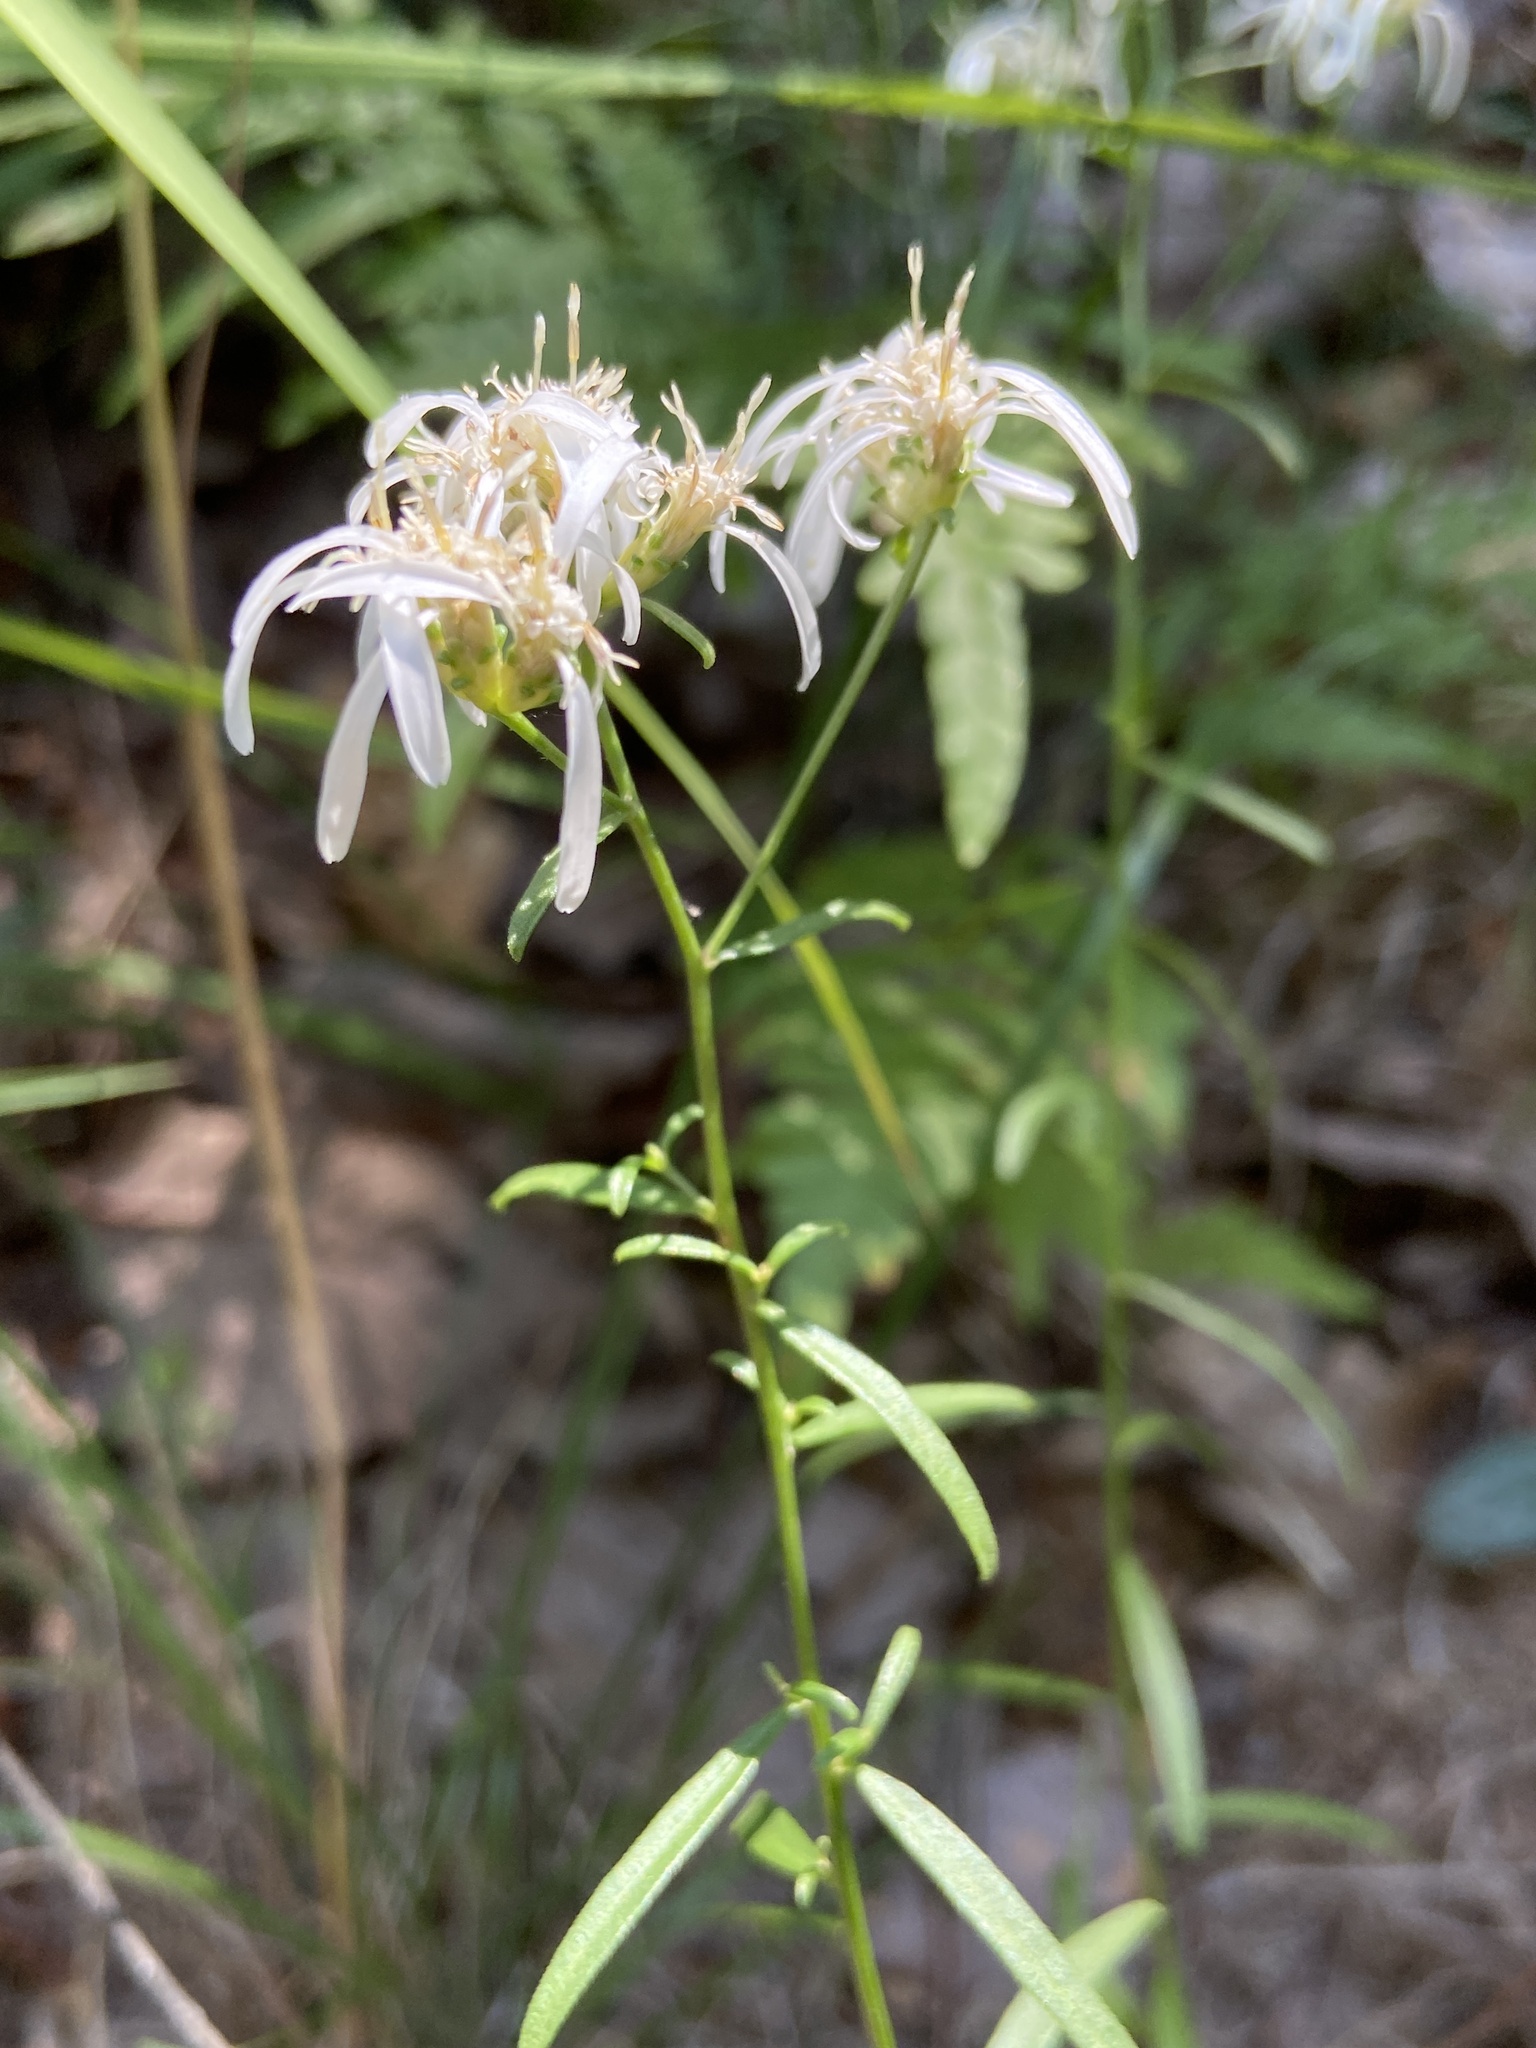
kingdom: Plantae
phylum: Tracheophyta
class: Magnoliopsida
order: Asterales
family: Asteraceae
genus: Sericocarpus
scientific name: Sericocarpus linifolius
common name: Narrow-leaf aster
